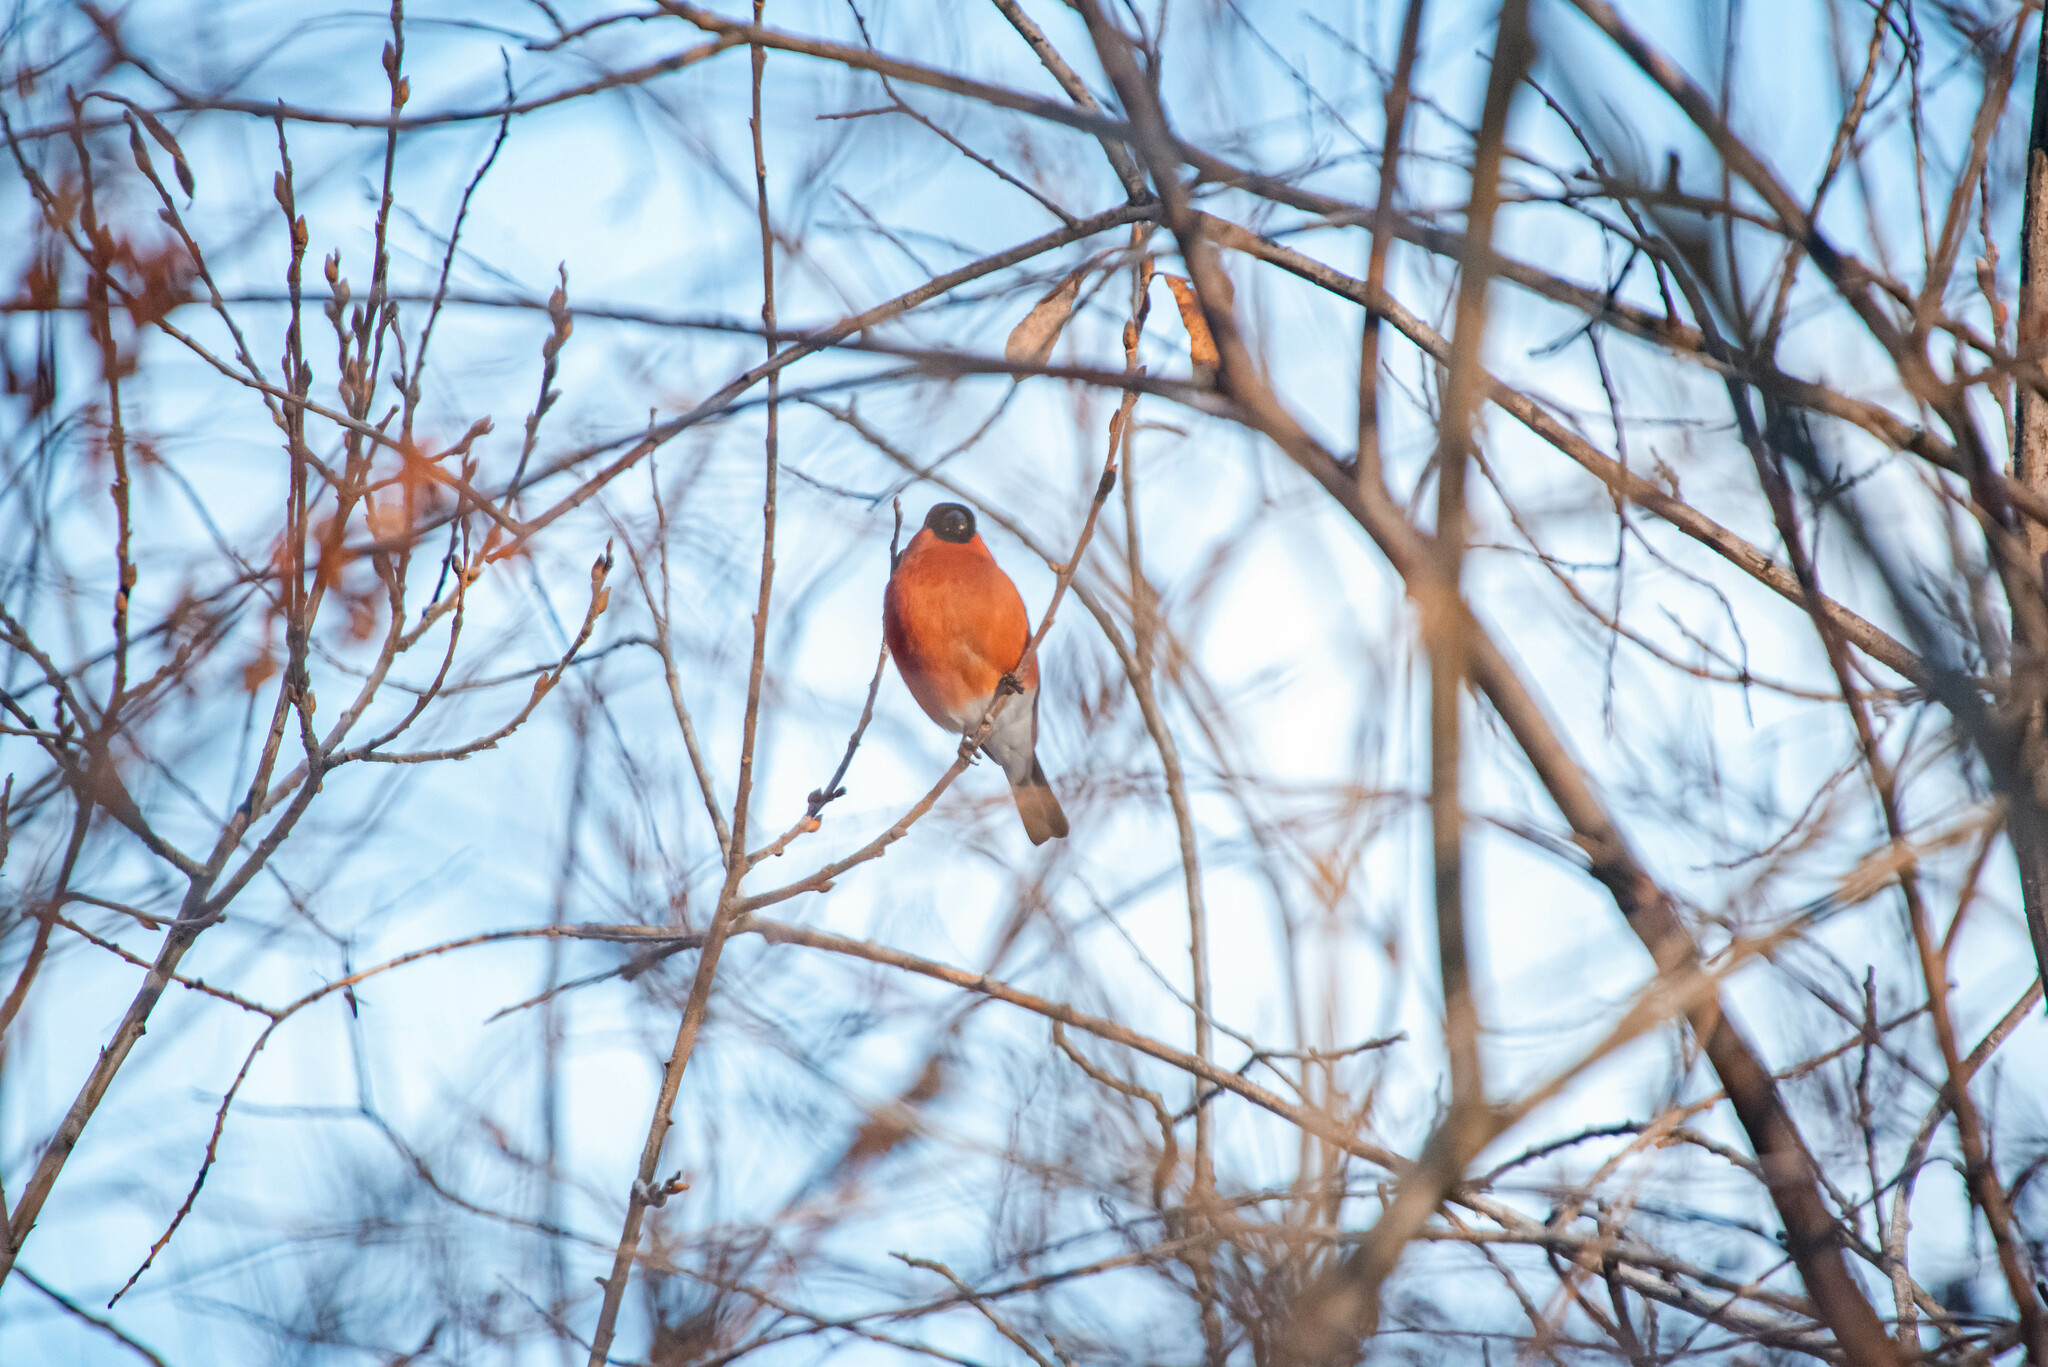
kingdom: Animalia
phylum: Chordata
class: Aves
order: Passeriformes
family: Fringillidae
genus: Pyrrhula
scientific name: Pyrrhula pyrrhula
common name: Eurasian bullfinch
